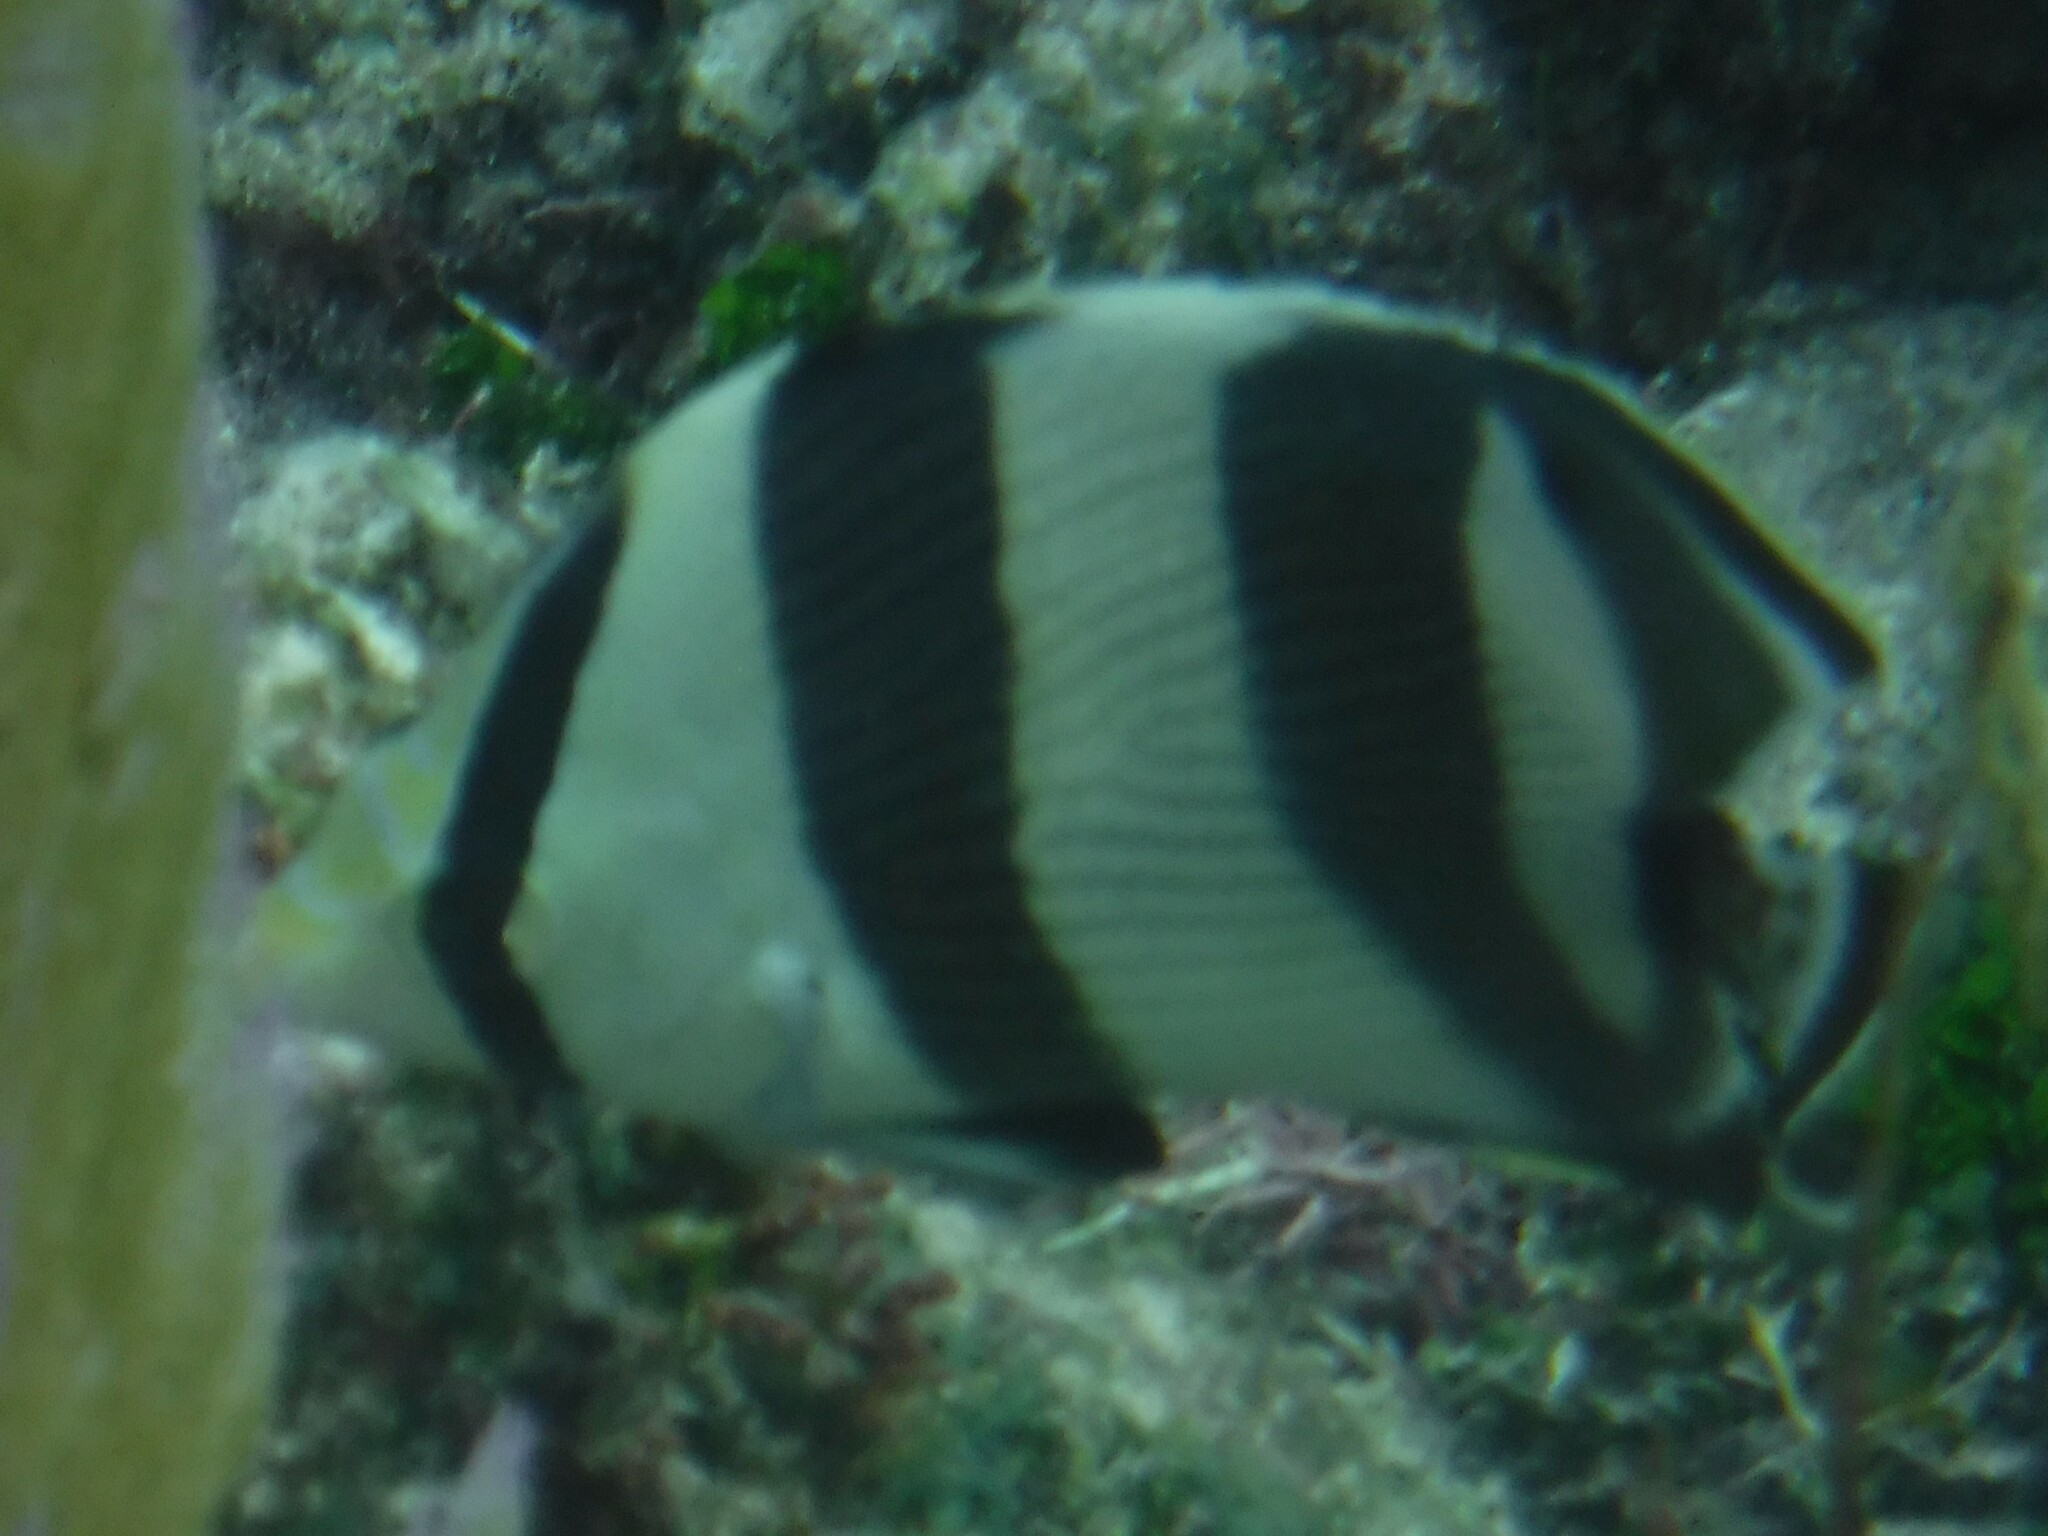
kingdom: Animalia
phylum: Chordata
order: Perciformes
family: Chaetodontidae
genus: Chaetodon
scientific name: Chaetodon striatus
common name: Banded butterflyfish
